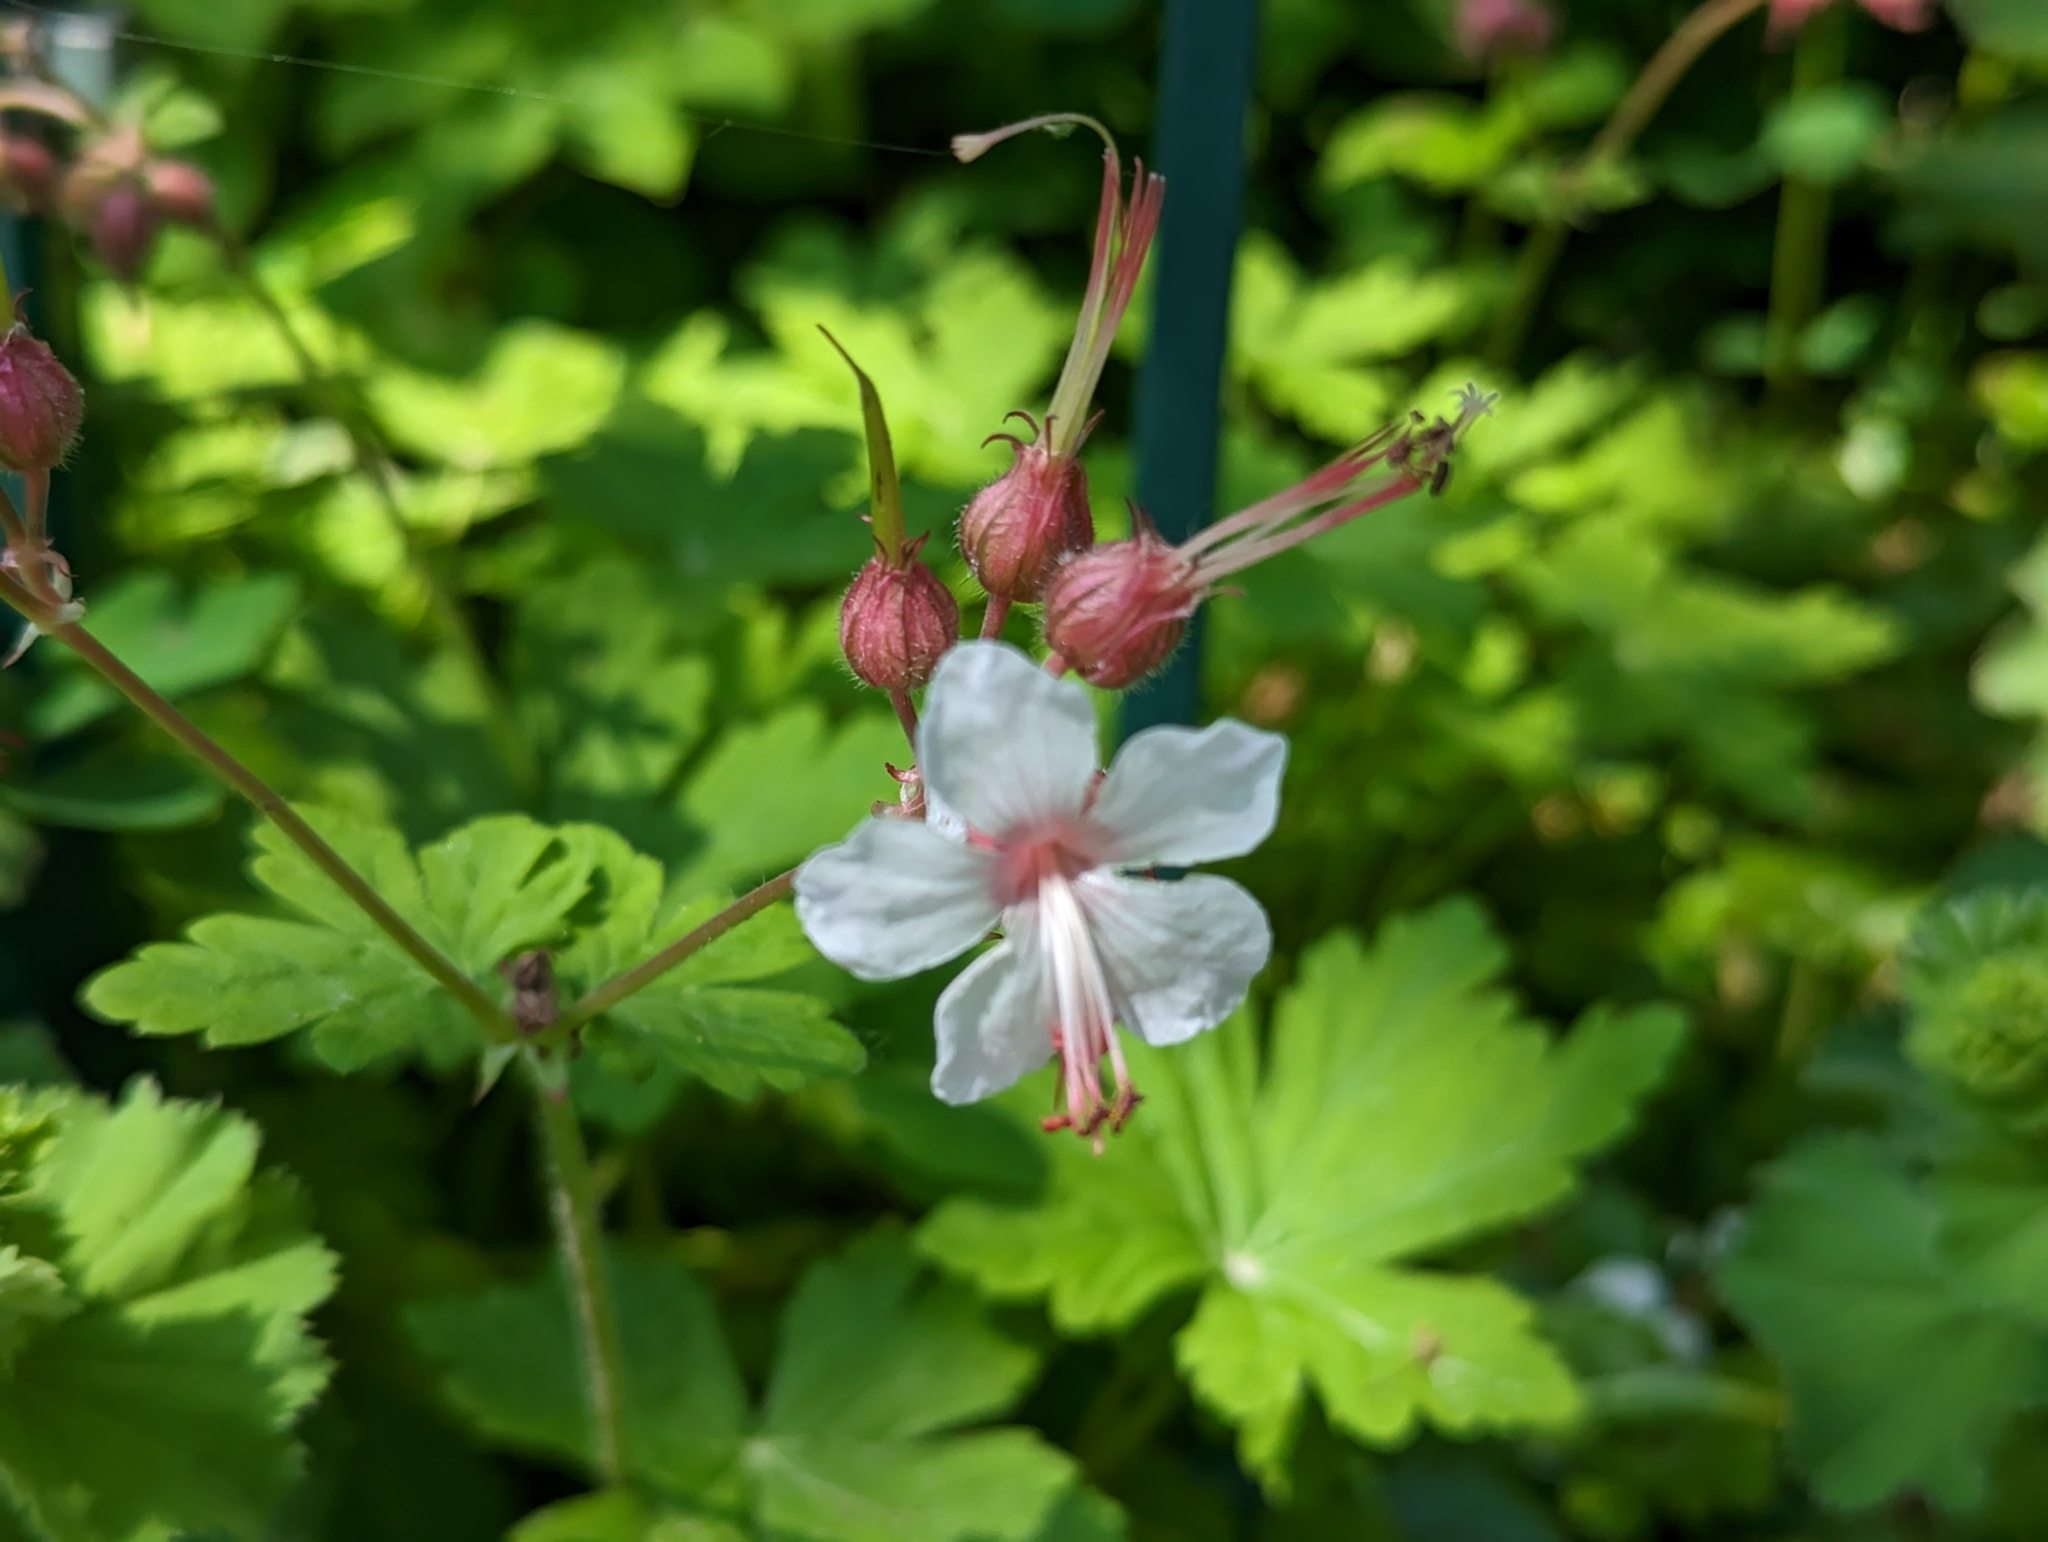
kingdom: Plantae
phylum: Tracheophyta
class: Magnoliopsida
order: Geraniales
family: Geraniaceae
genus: Geranium
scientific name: Geranium macrorrhizum
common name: Rock crane's-bill
